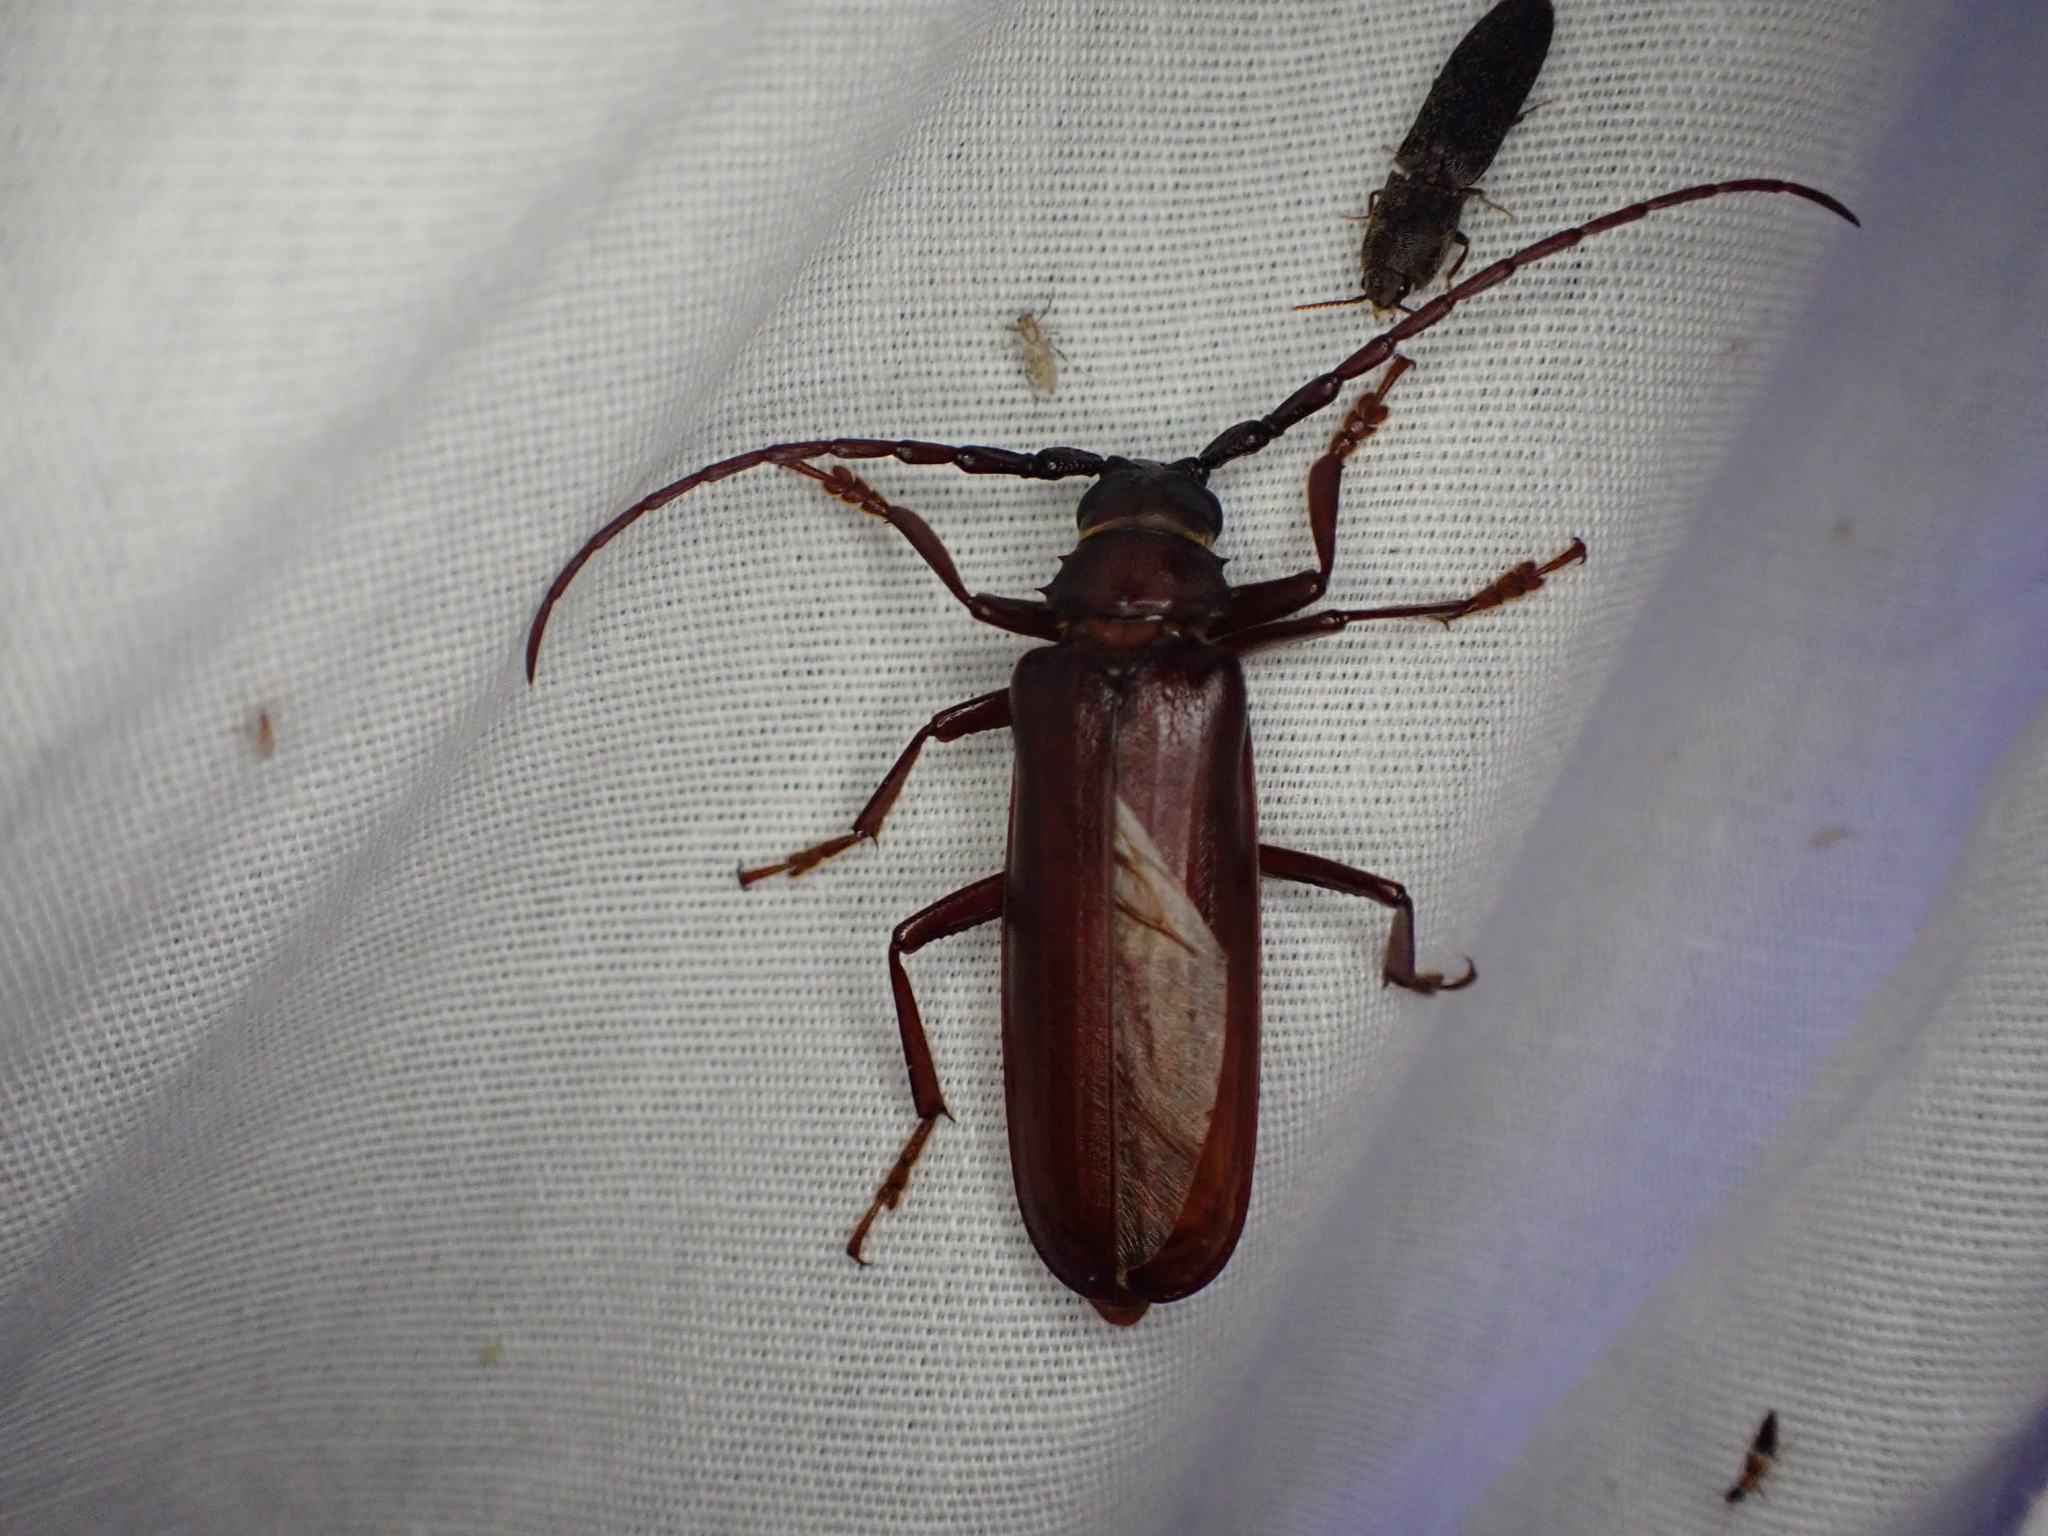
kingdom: Animalia
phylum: Arthropoda
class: Insecta
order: Coleoptera
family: Cerambycidae
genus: Orthosoma
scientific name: Orthosoma brunneum
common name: Brown prionid beetle
